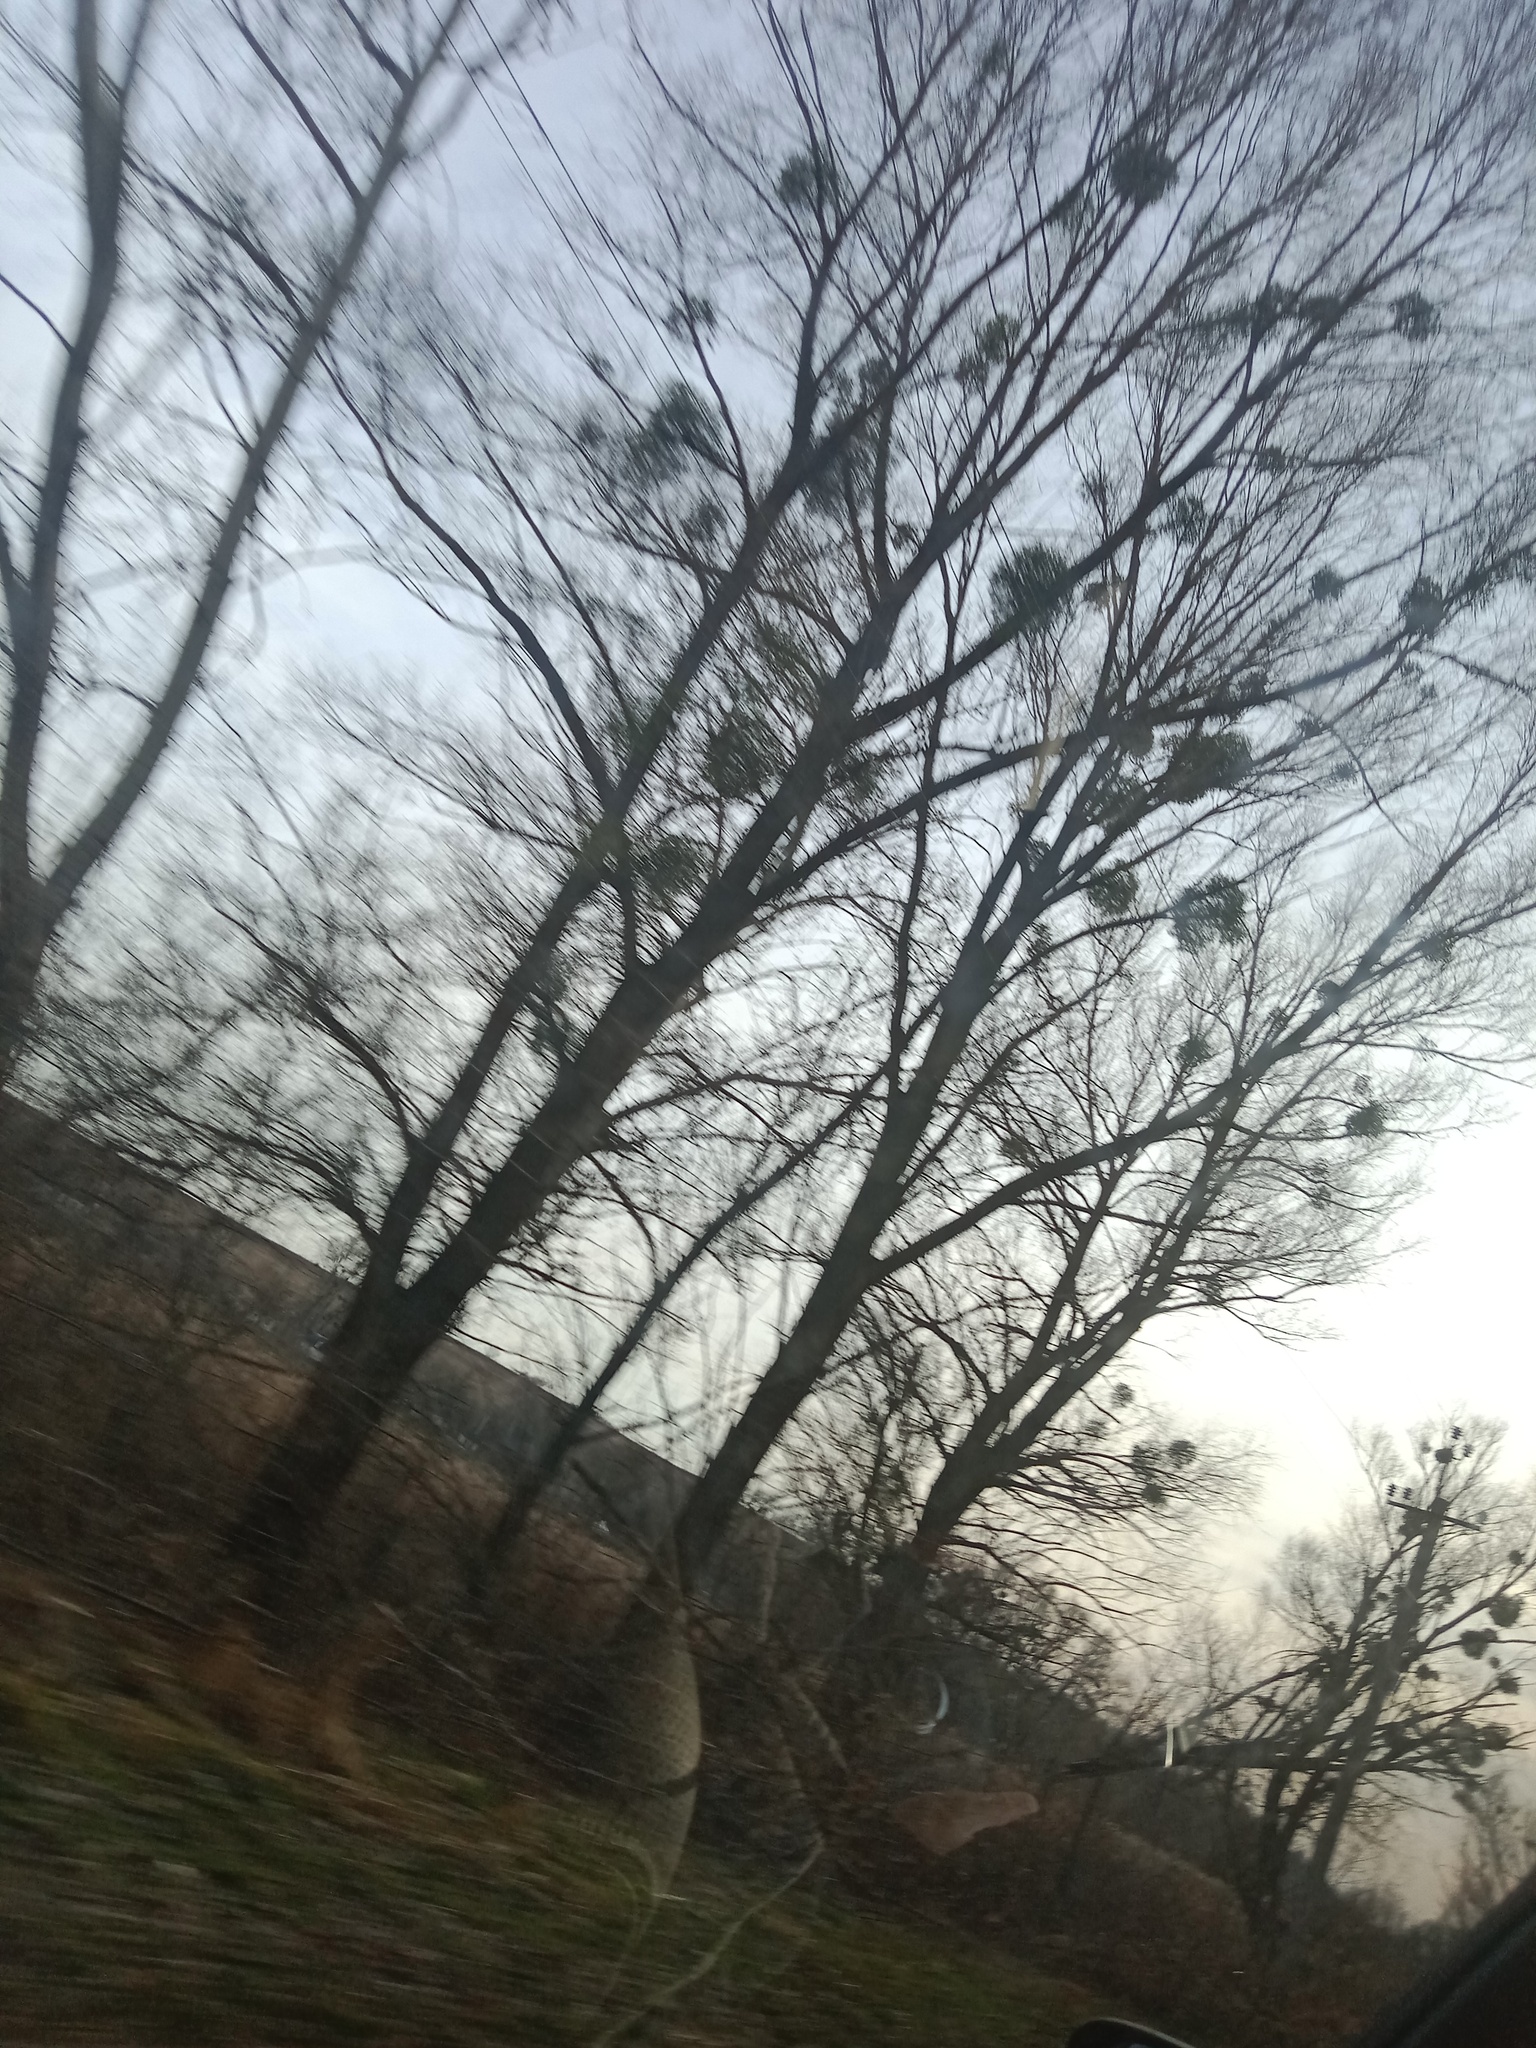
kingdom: Plantae
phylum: Tracheophyta
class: Magnoliopsida
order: Santalales
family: Viscaceae
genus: Viscum
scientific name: Viscum album
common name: Mistletoe
